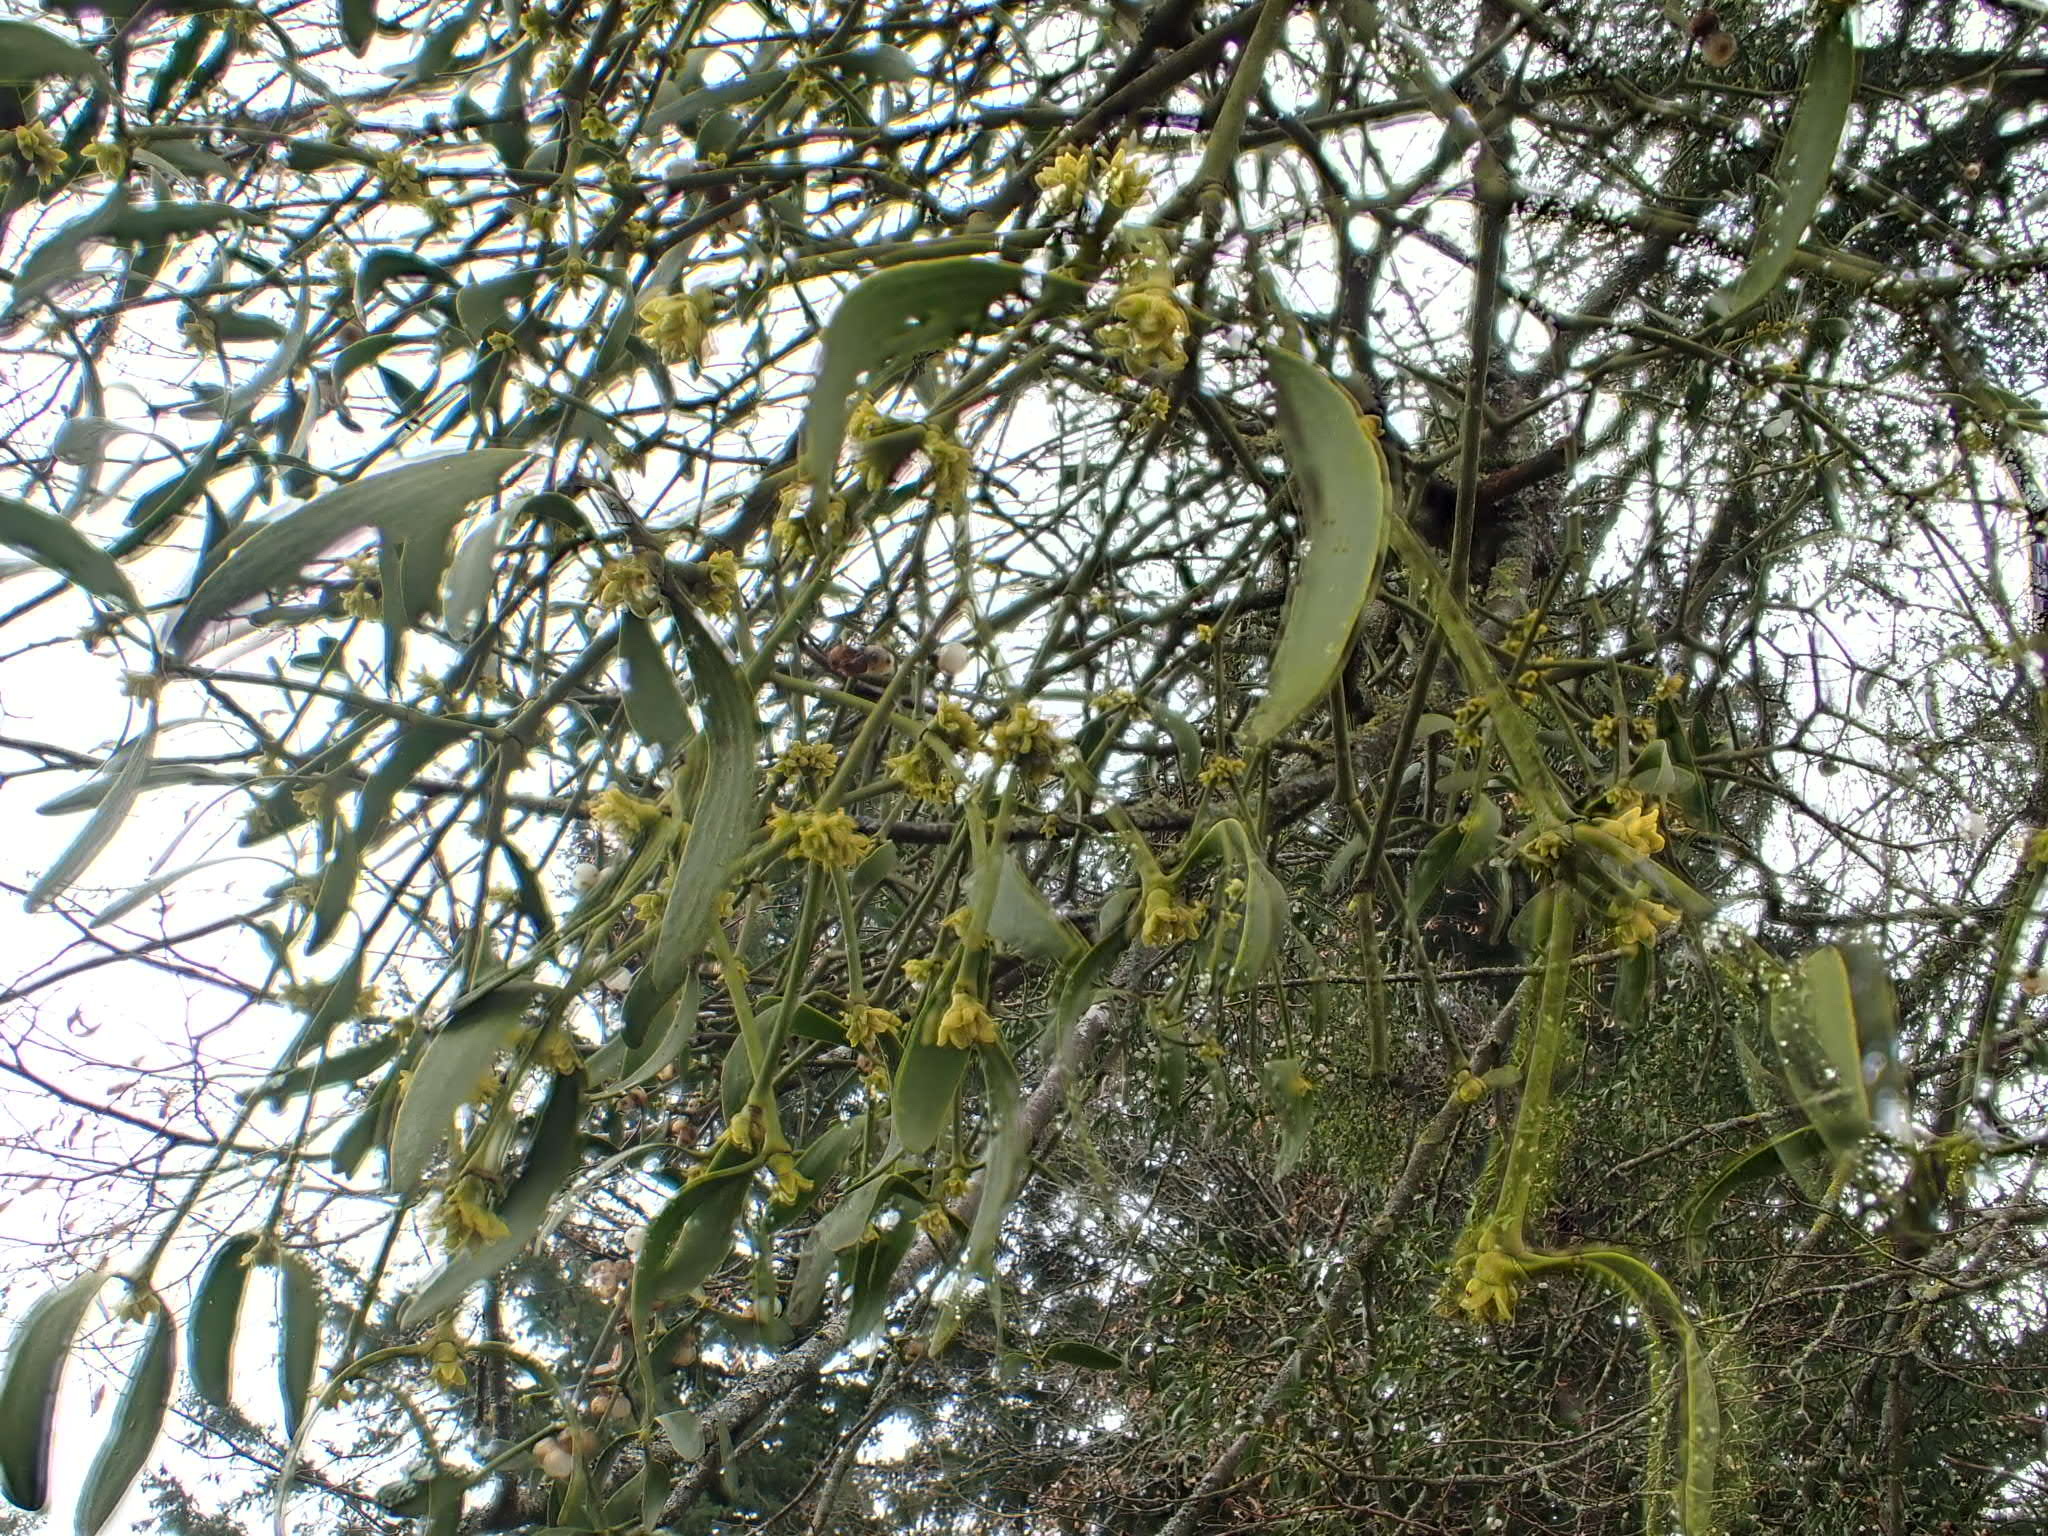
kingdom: Plantae
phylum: Tracheophyta
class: Magnoliopsida
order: Santalales
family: Viscaceae
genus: Viscum
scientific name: Viscum album
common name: Mistletoe
